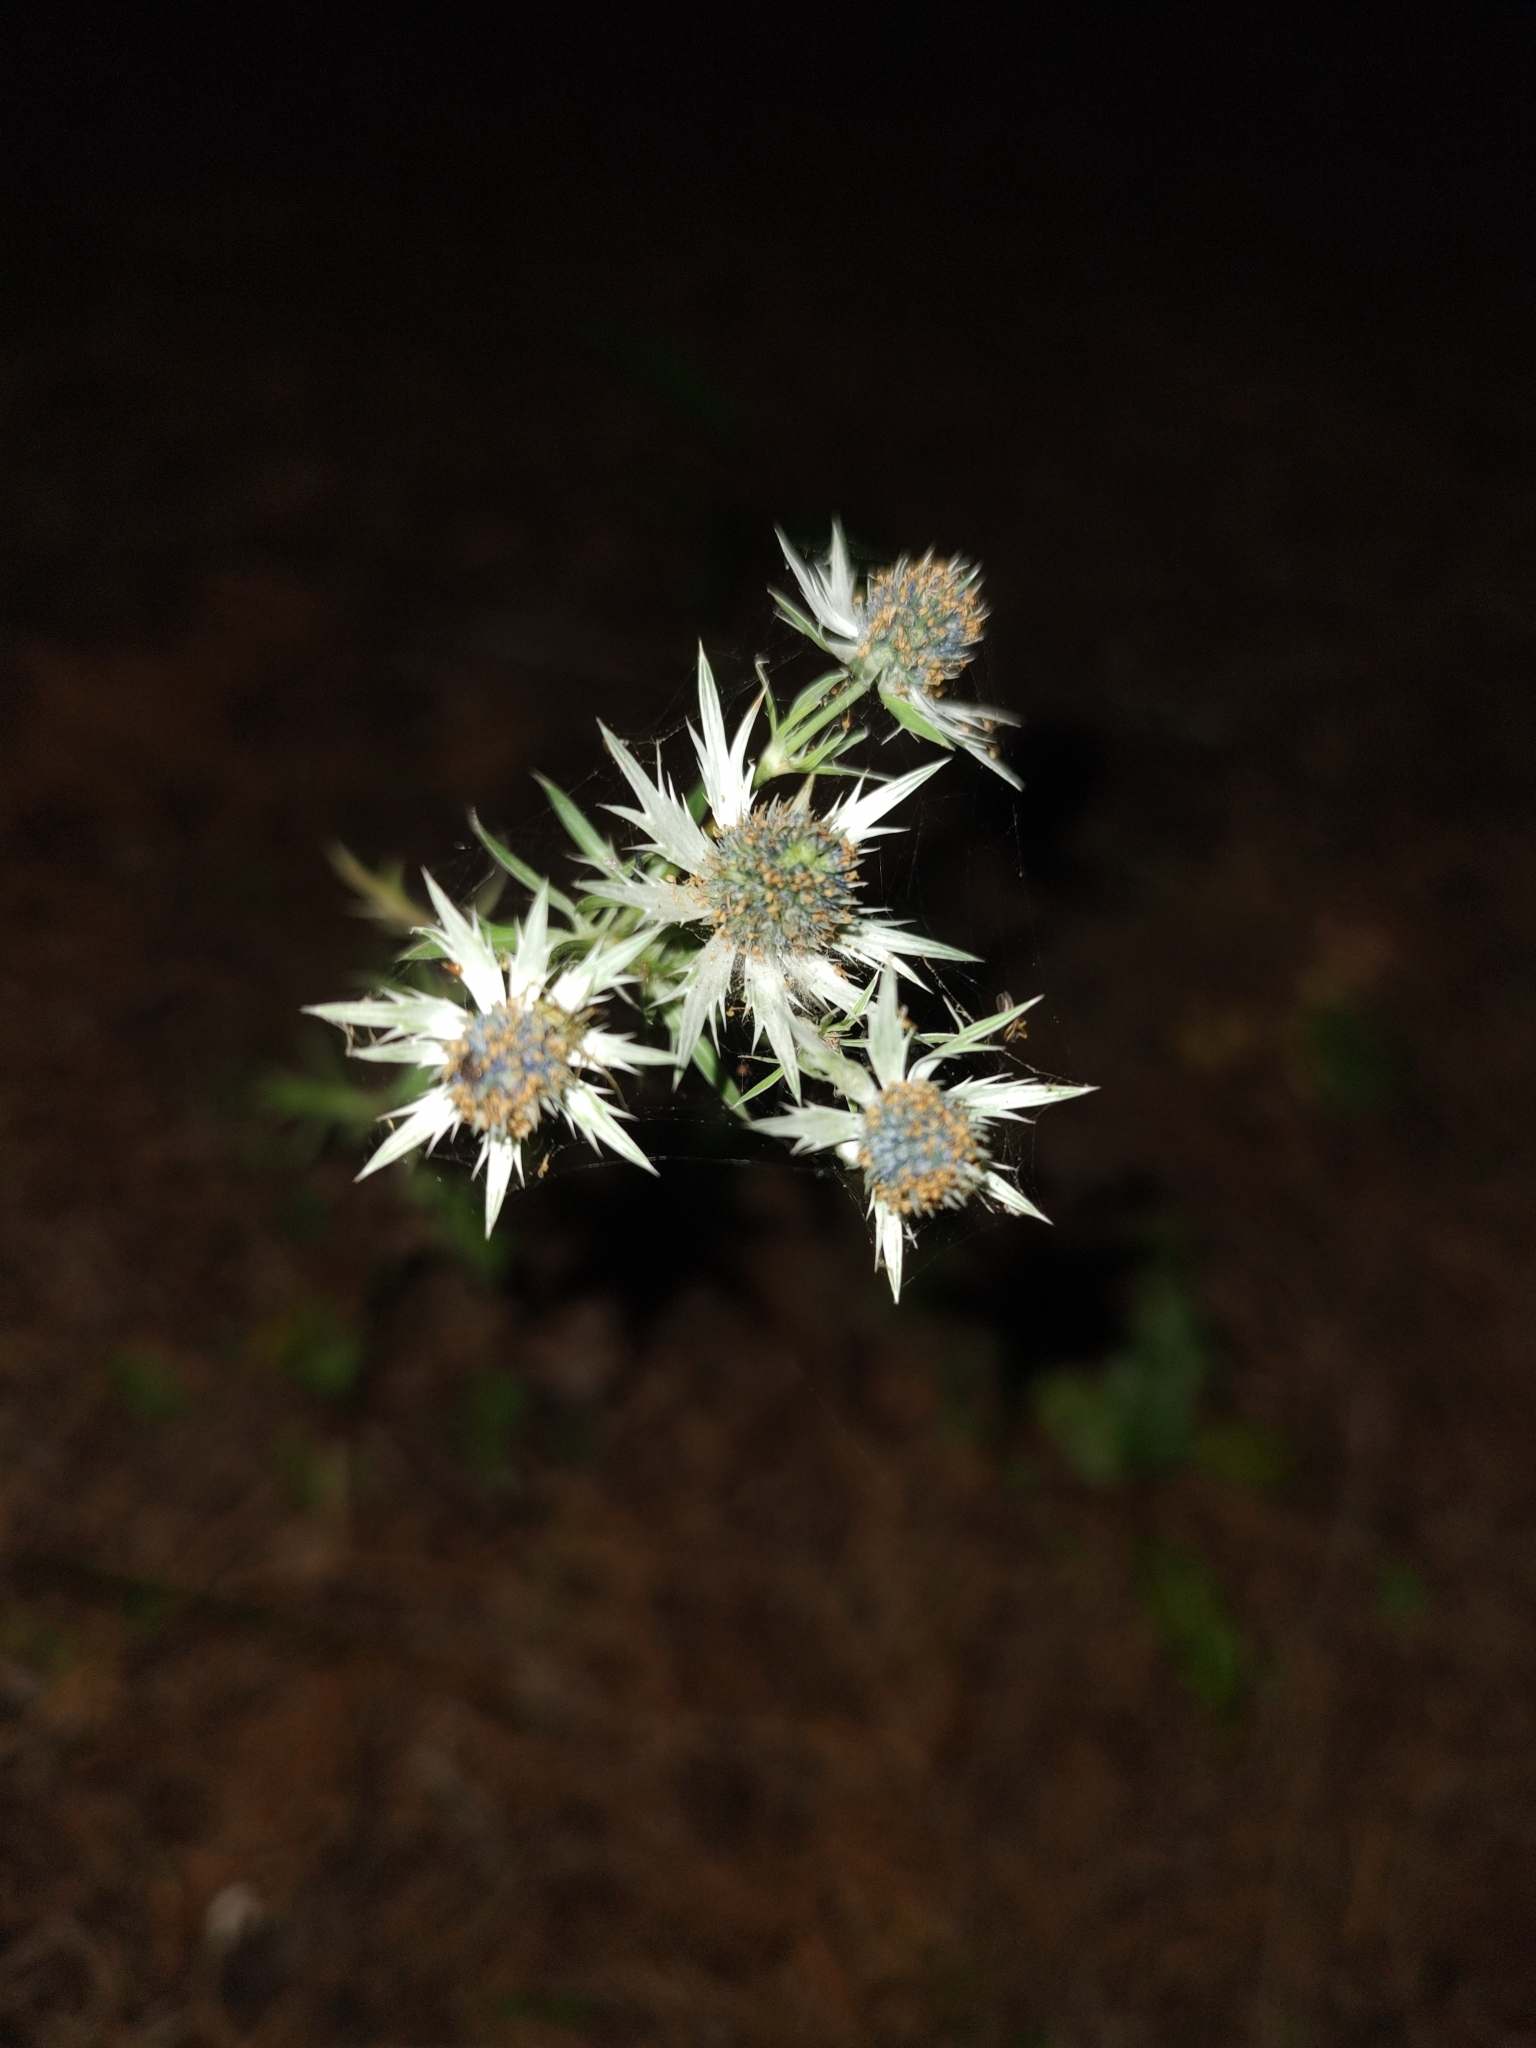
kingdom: Plantae
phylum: Tracheophyta
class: Magnoliopsida
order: Apiales
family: Apiaceae
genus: Eryngium
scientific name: Eryngium heterophyllum
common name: Mexican thistle
